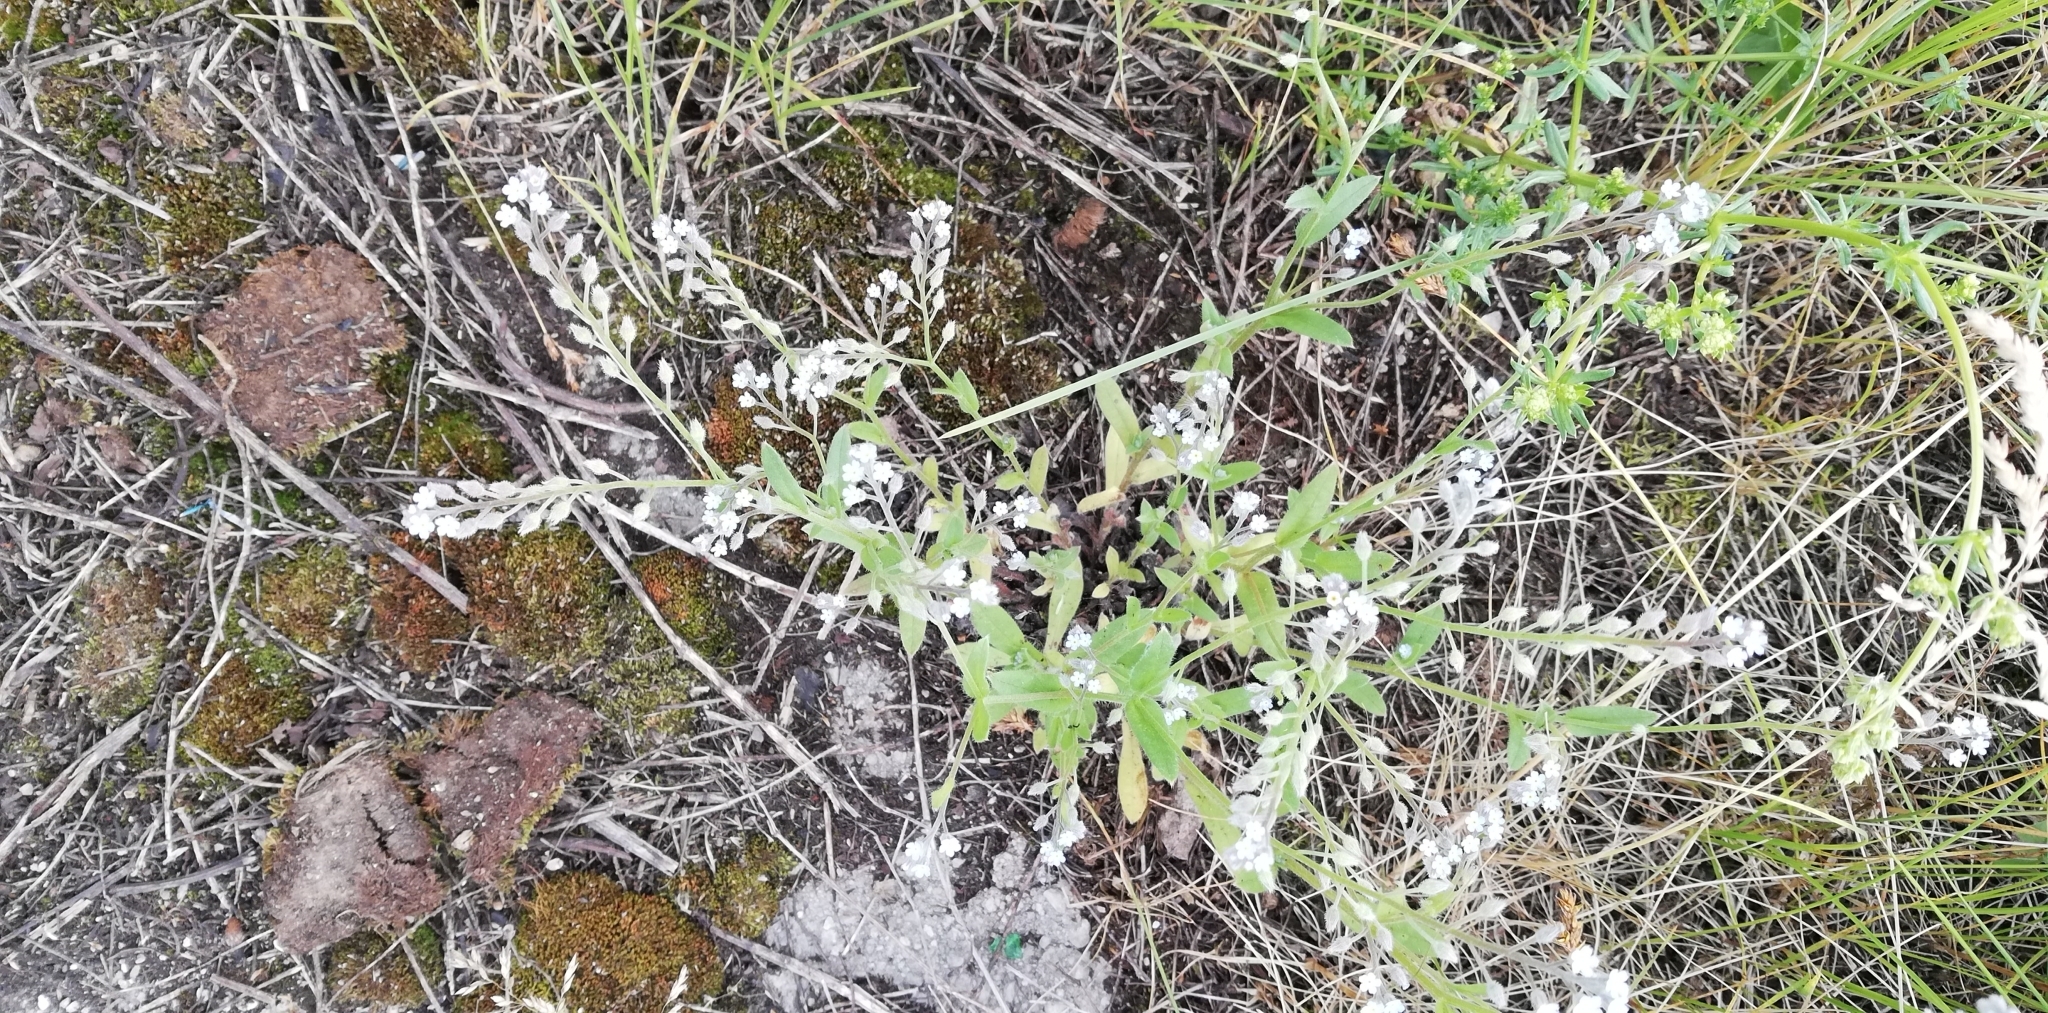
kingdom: Plantae
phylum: Tracheophyta
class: Magnoliopsida
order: Boraginales
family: Boraginaceae
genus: Myosotis
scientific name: Myosotis arvensis
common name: Field forget-me-not
